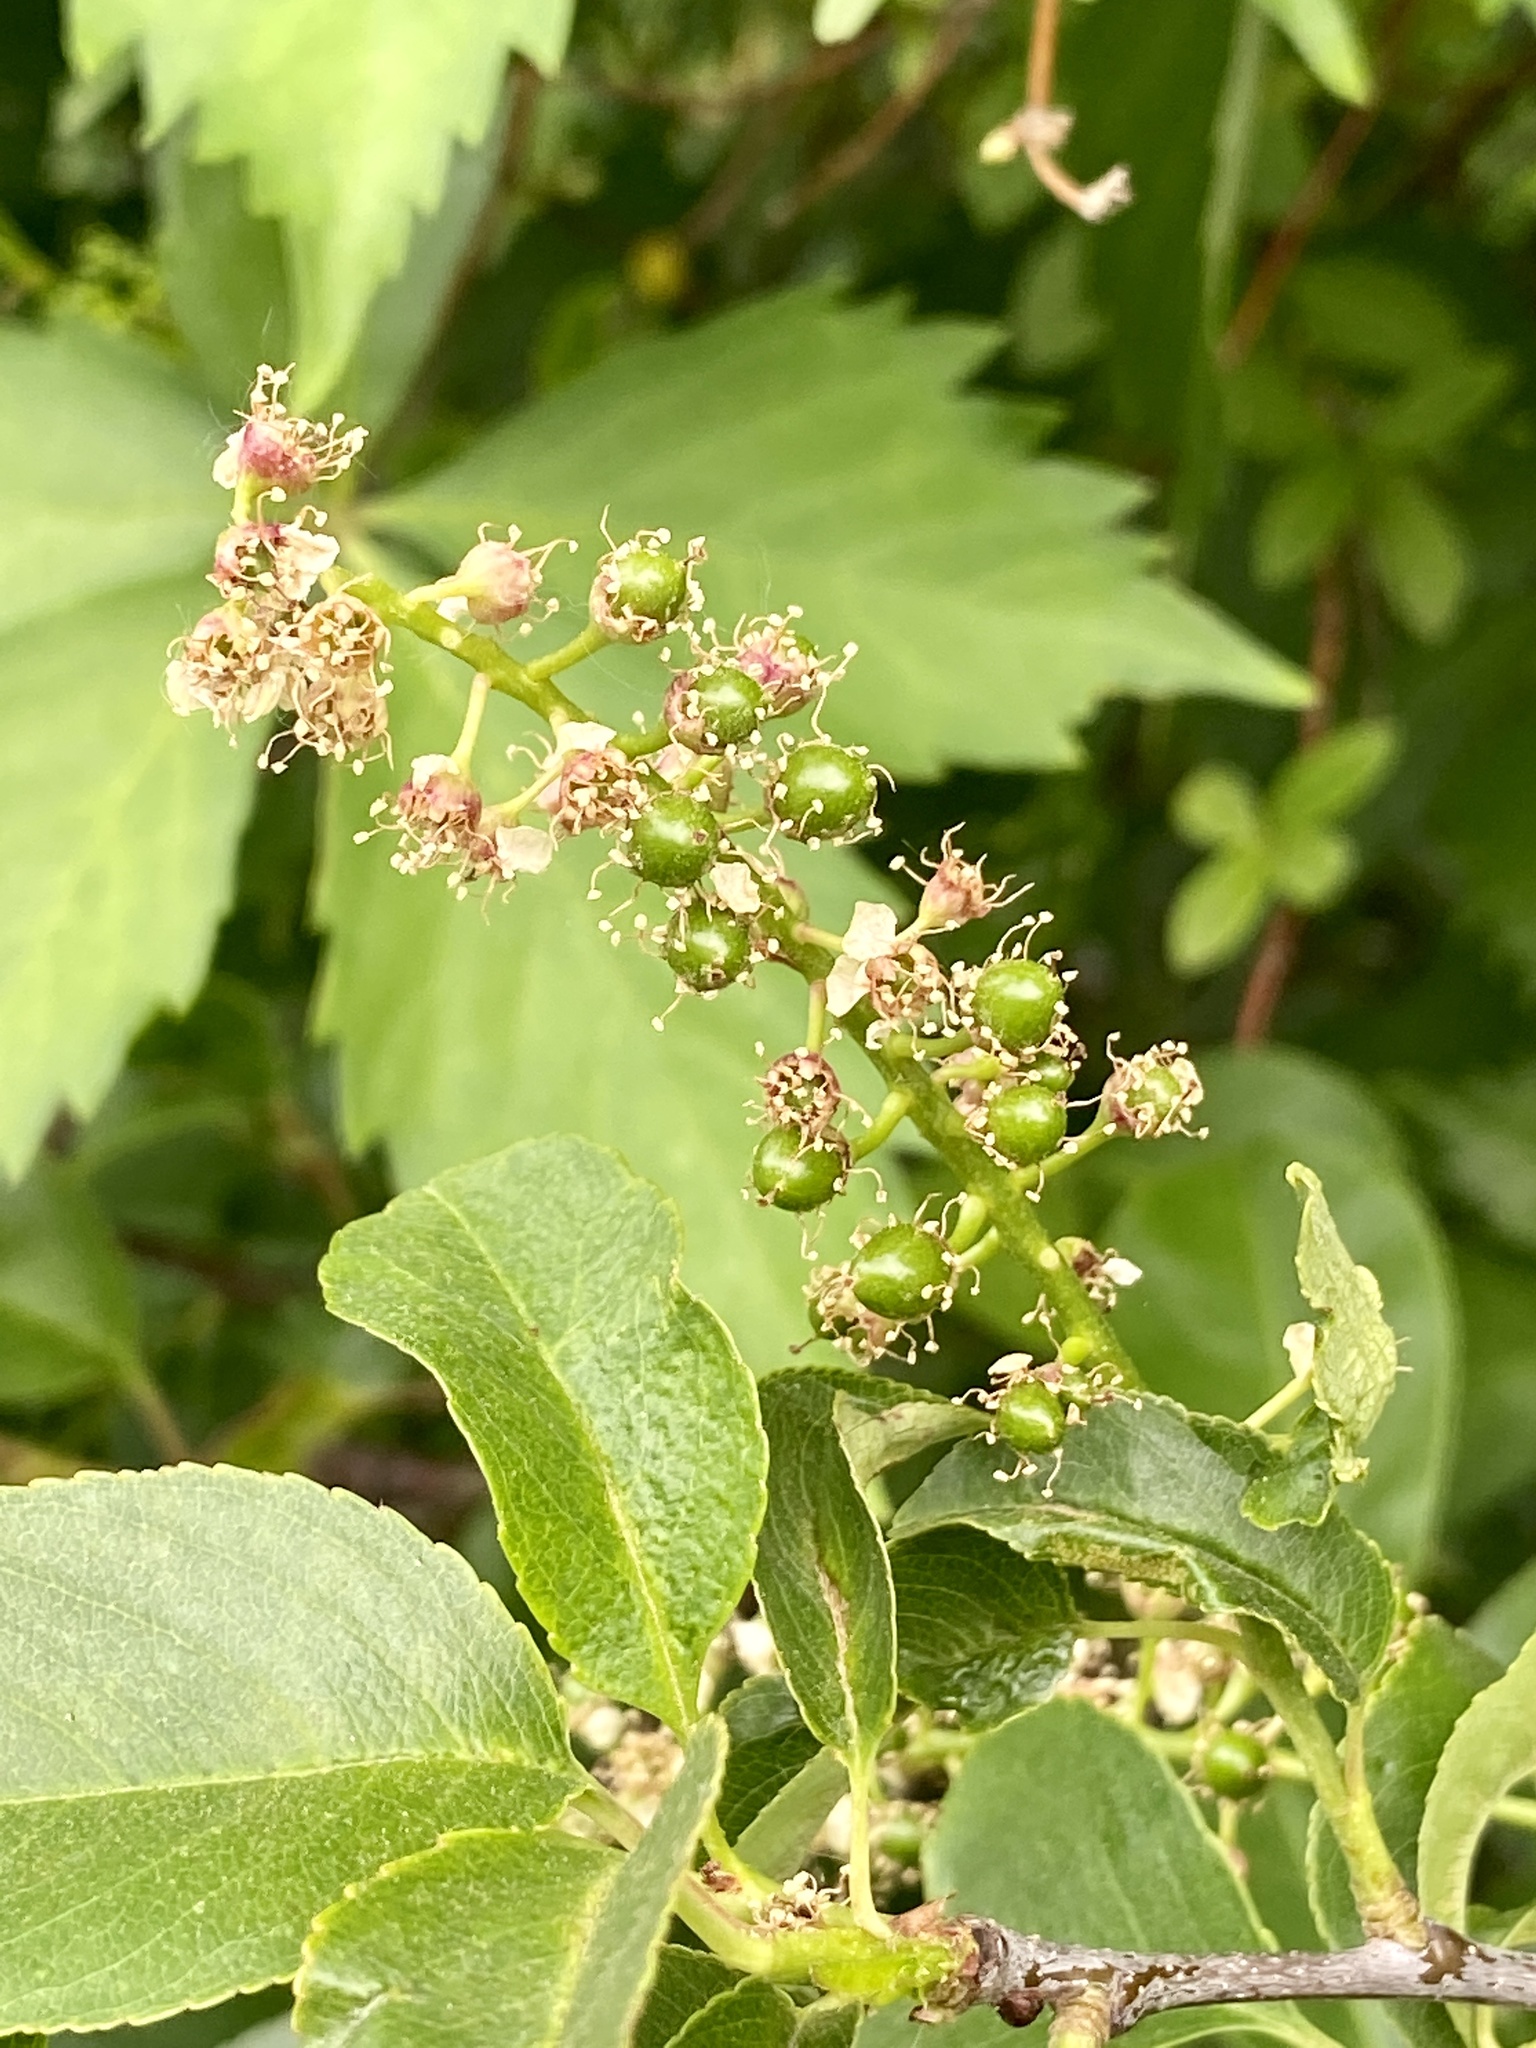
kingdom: Plantae
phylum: Tracheophyta
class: Magnoliopsida
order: Rosales
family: Rosaceae
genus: Prunus
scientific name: Prunus serotina
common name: Black cherry
